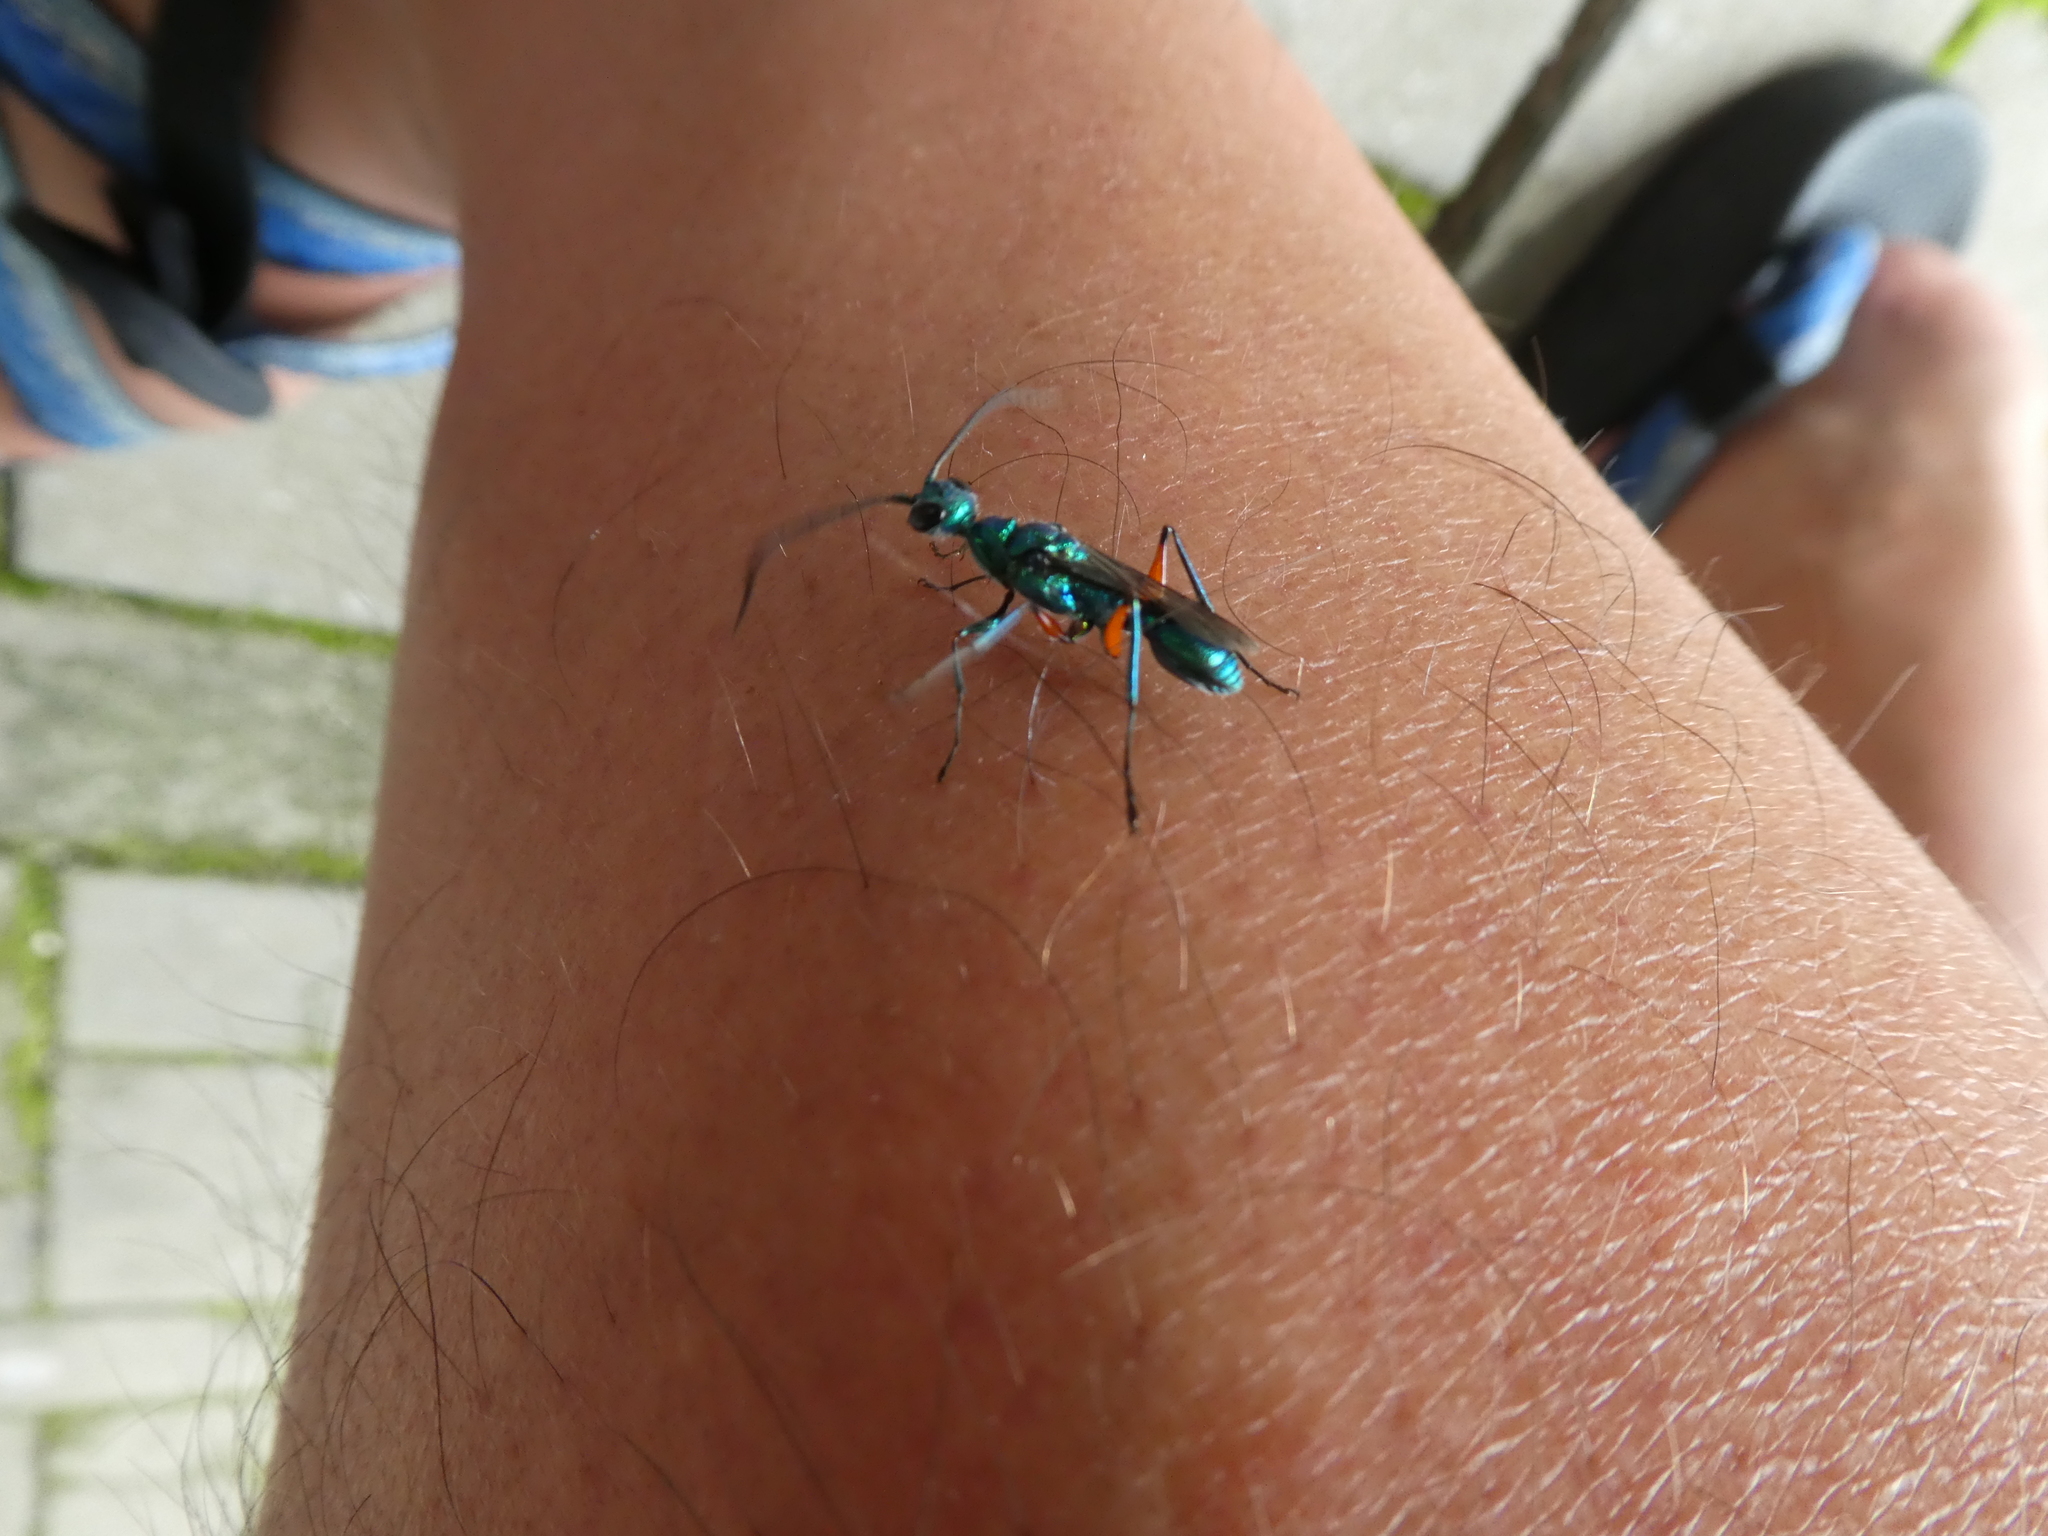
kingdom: Animalia
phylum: Arthropoda
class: Insecta
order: Hymenoptera
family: Ampulicidae
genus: Ampulex
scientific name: Ampulex compressa
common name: Emerald cockroach wasp
